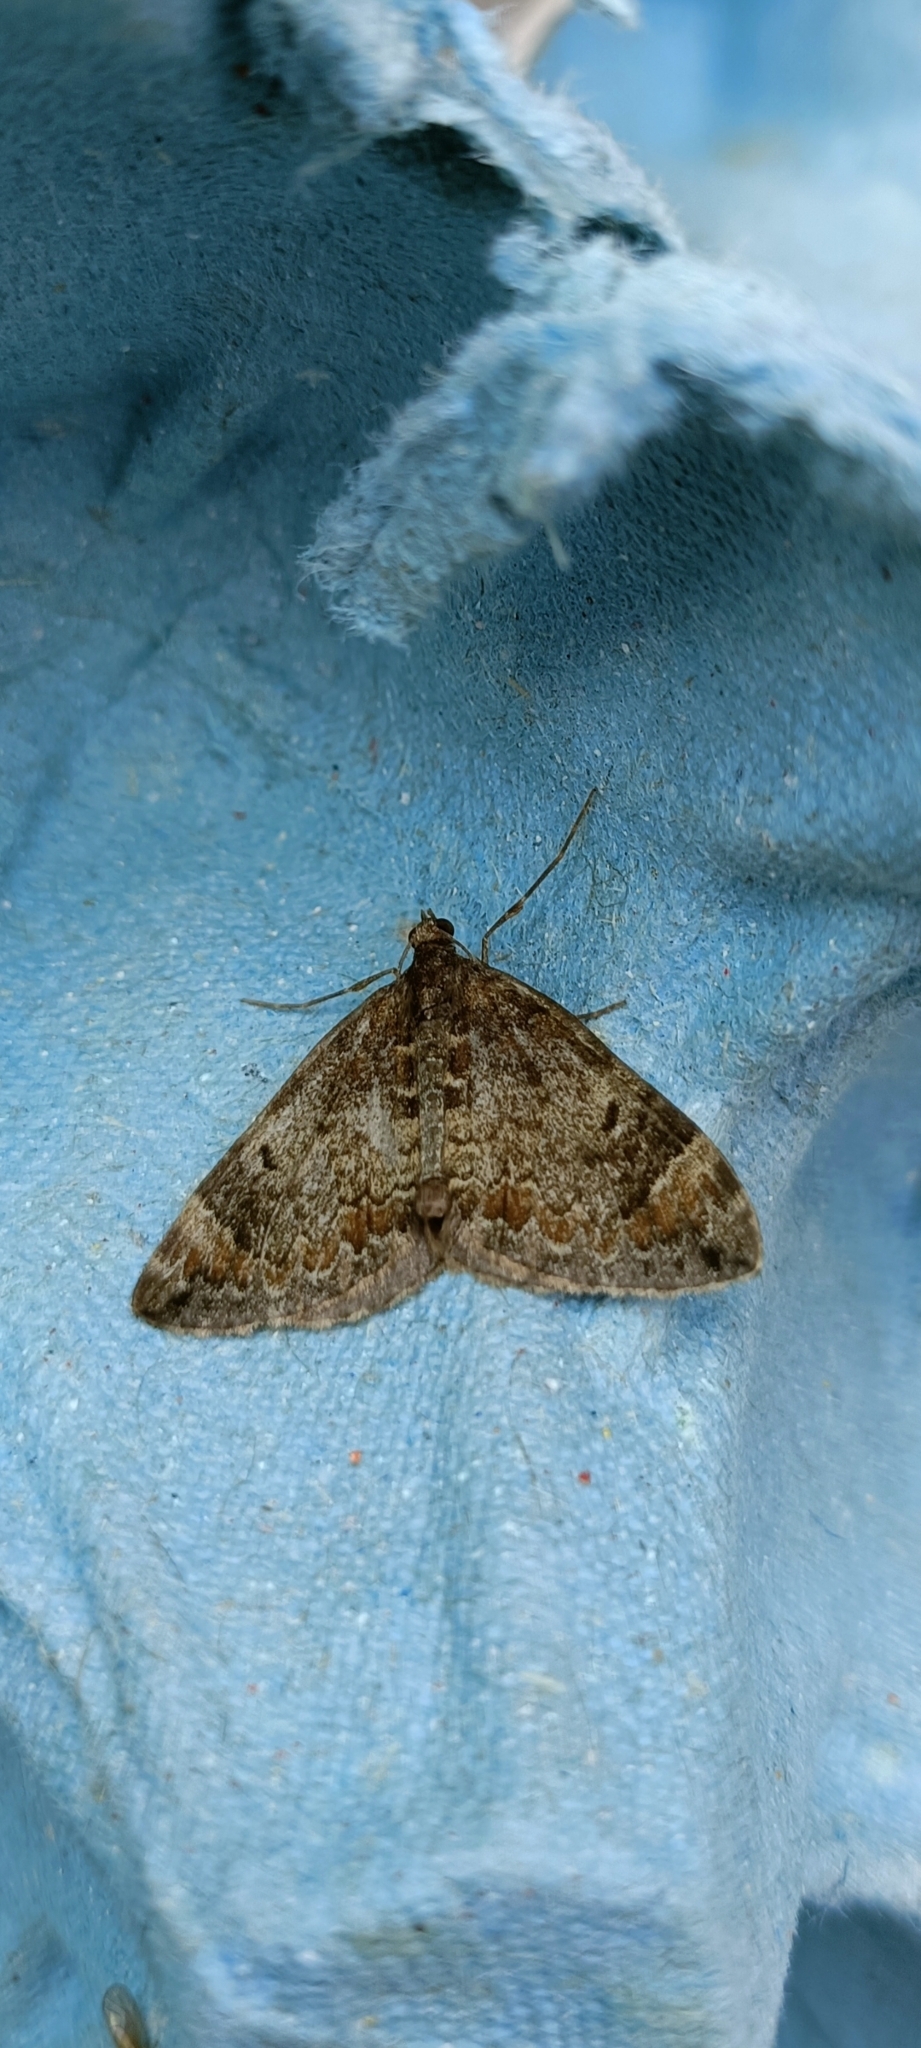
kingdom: Animalia
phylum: Arthropoda
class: Insecta
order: Lepidoptera
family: Geometridae
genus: Dysstroma
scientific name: Dysstroma truncata
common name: Common marbled carpet
